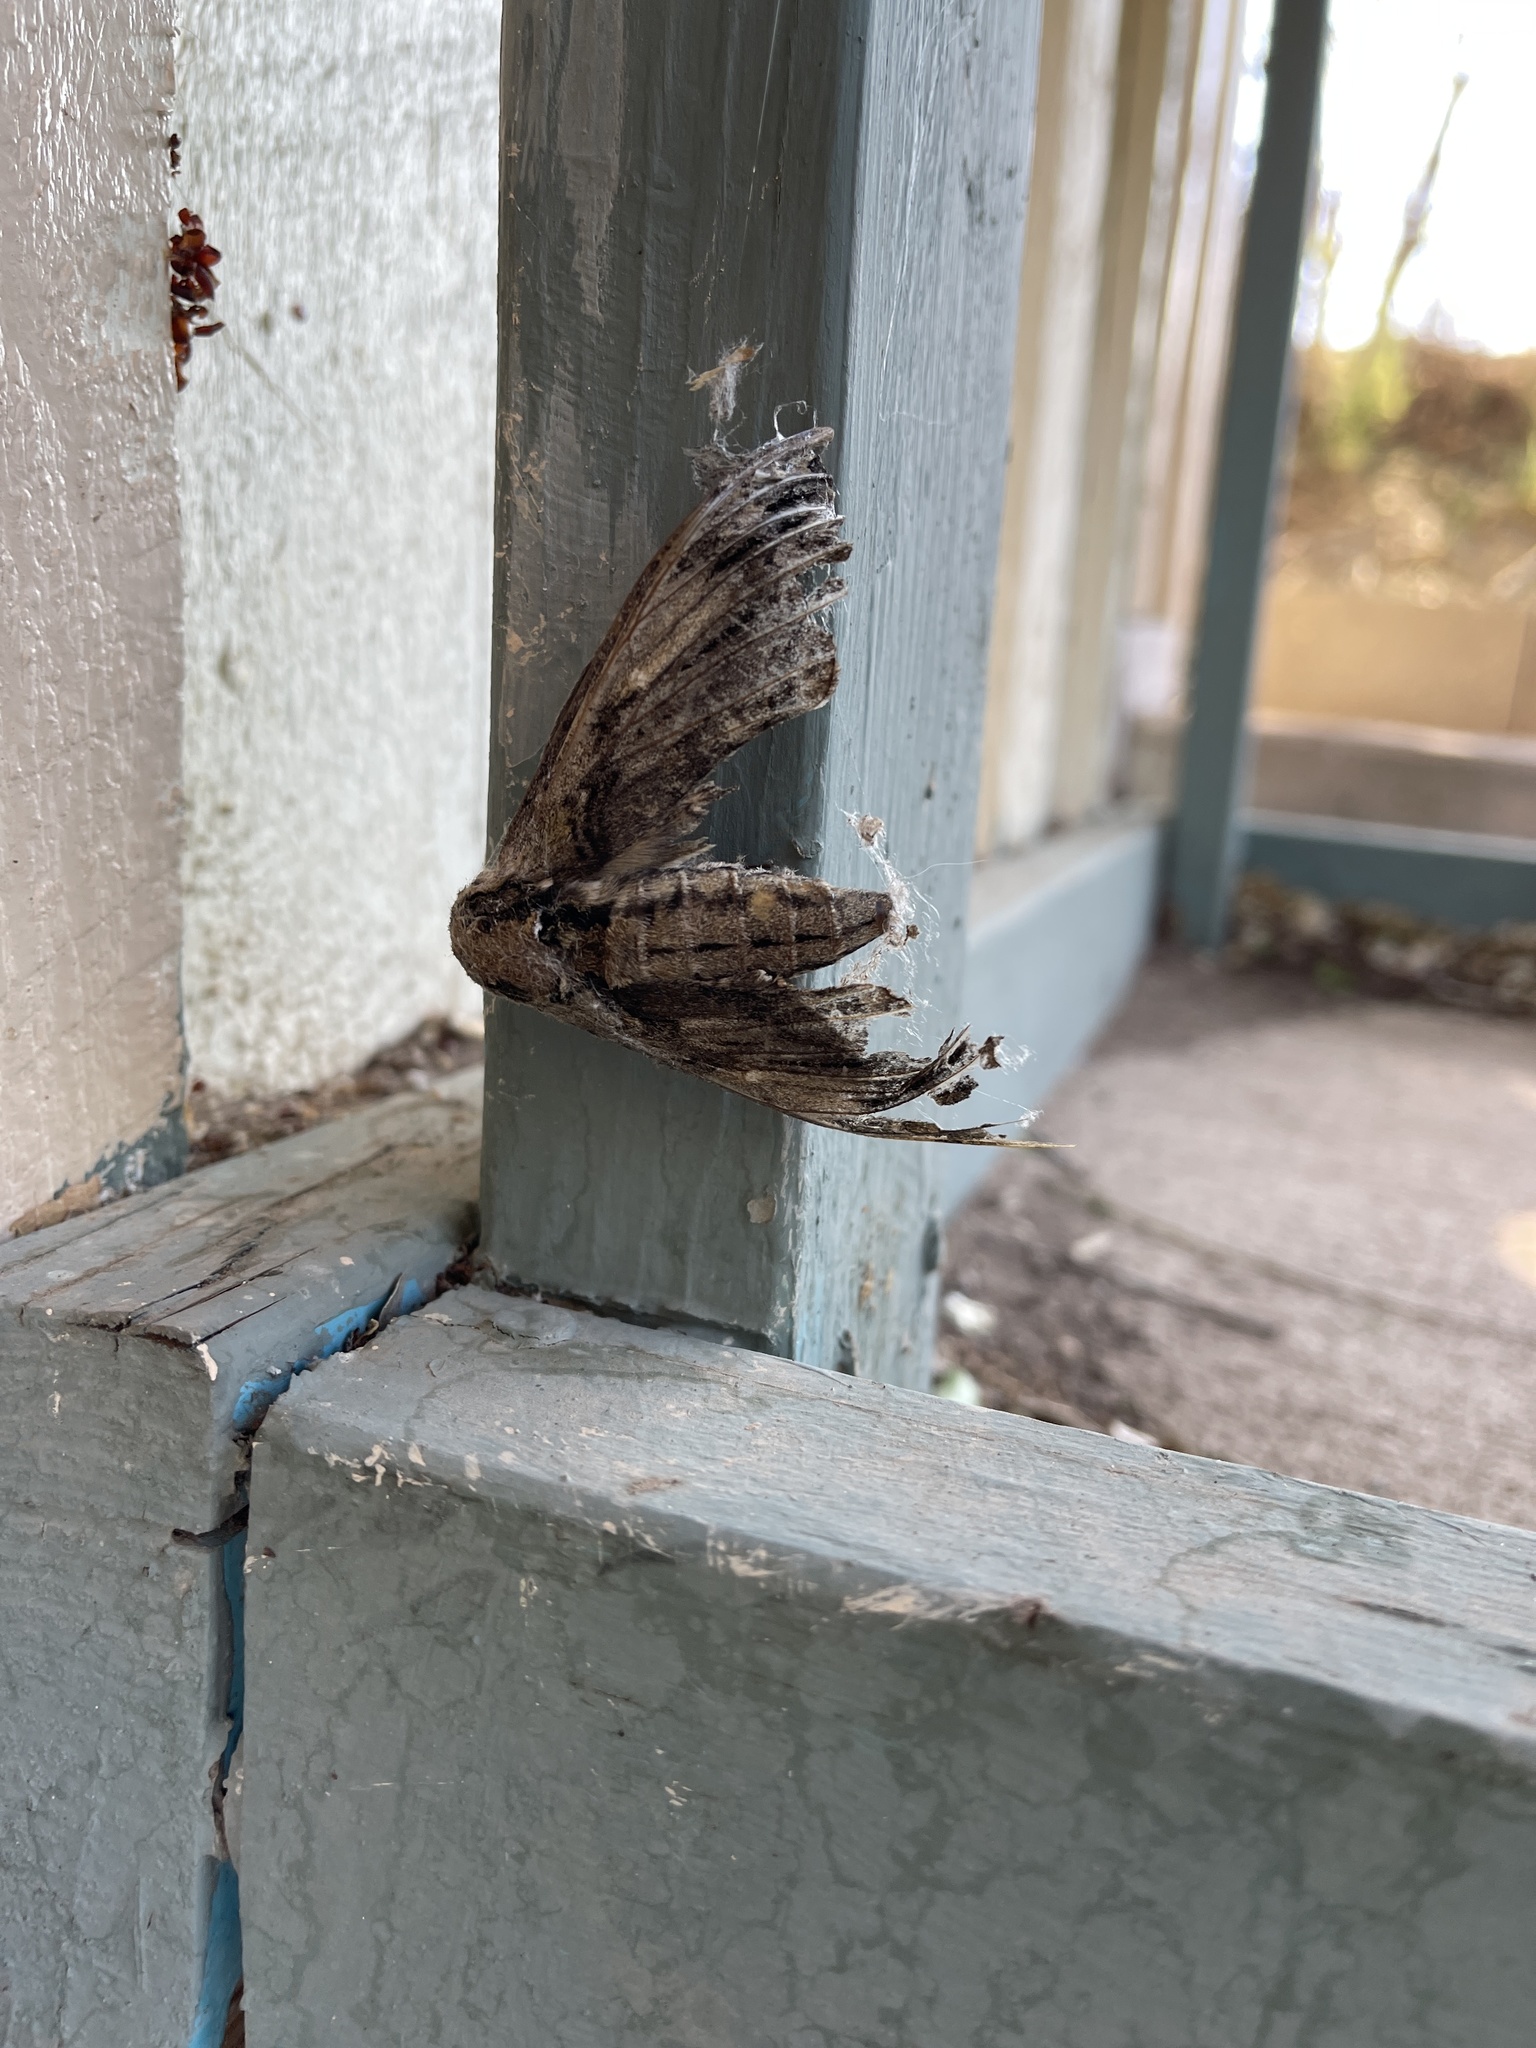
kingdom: Animalia
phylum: Arthropoda
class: Insecta
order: Lepidoptera
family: Sphingidae
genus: Ceratomia
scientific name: Ceratomia amyntor
